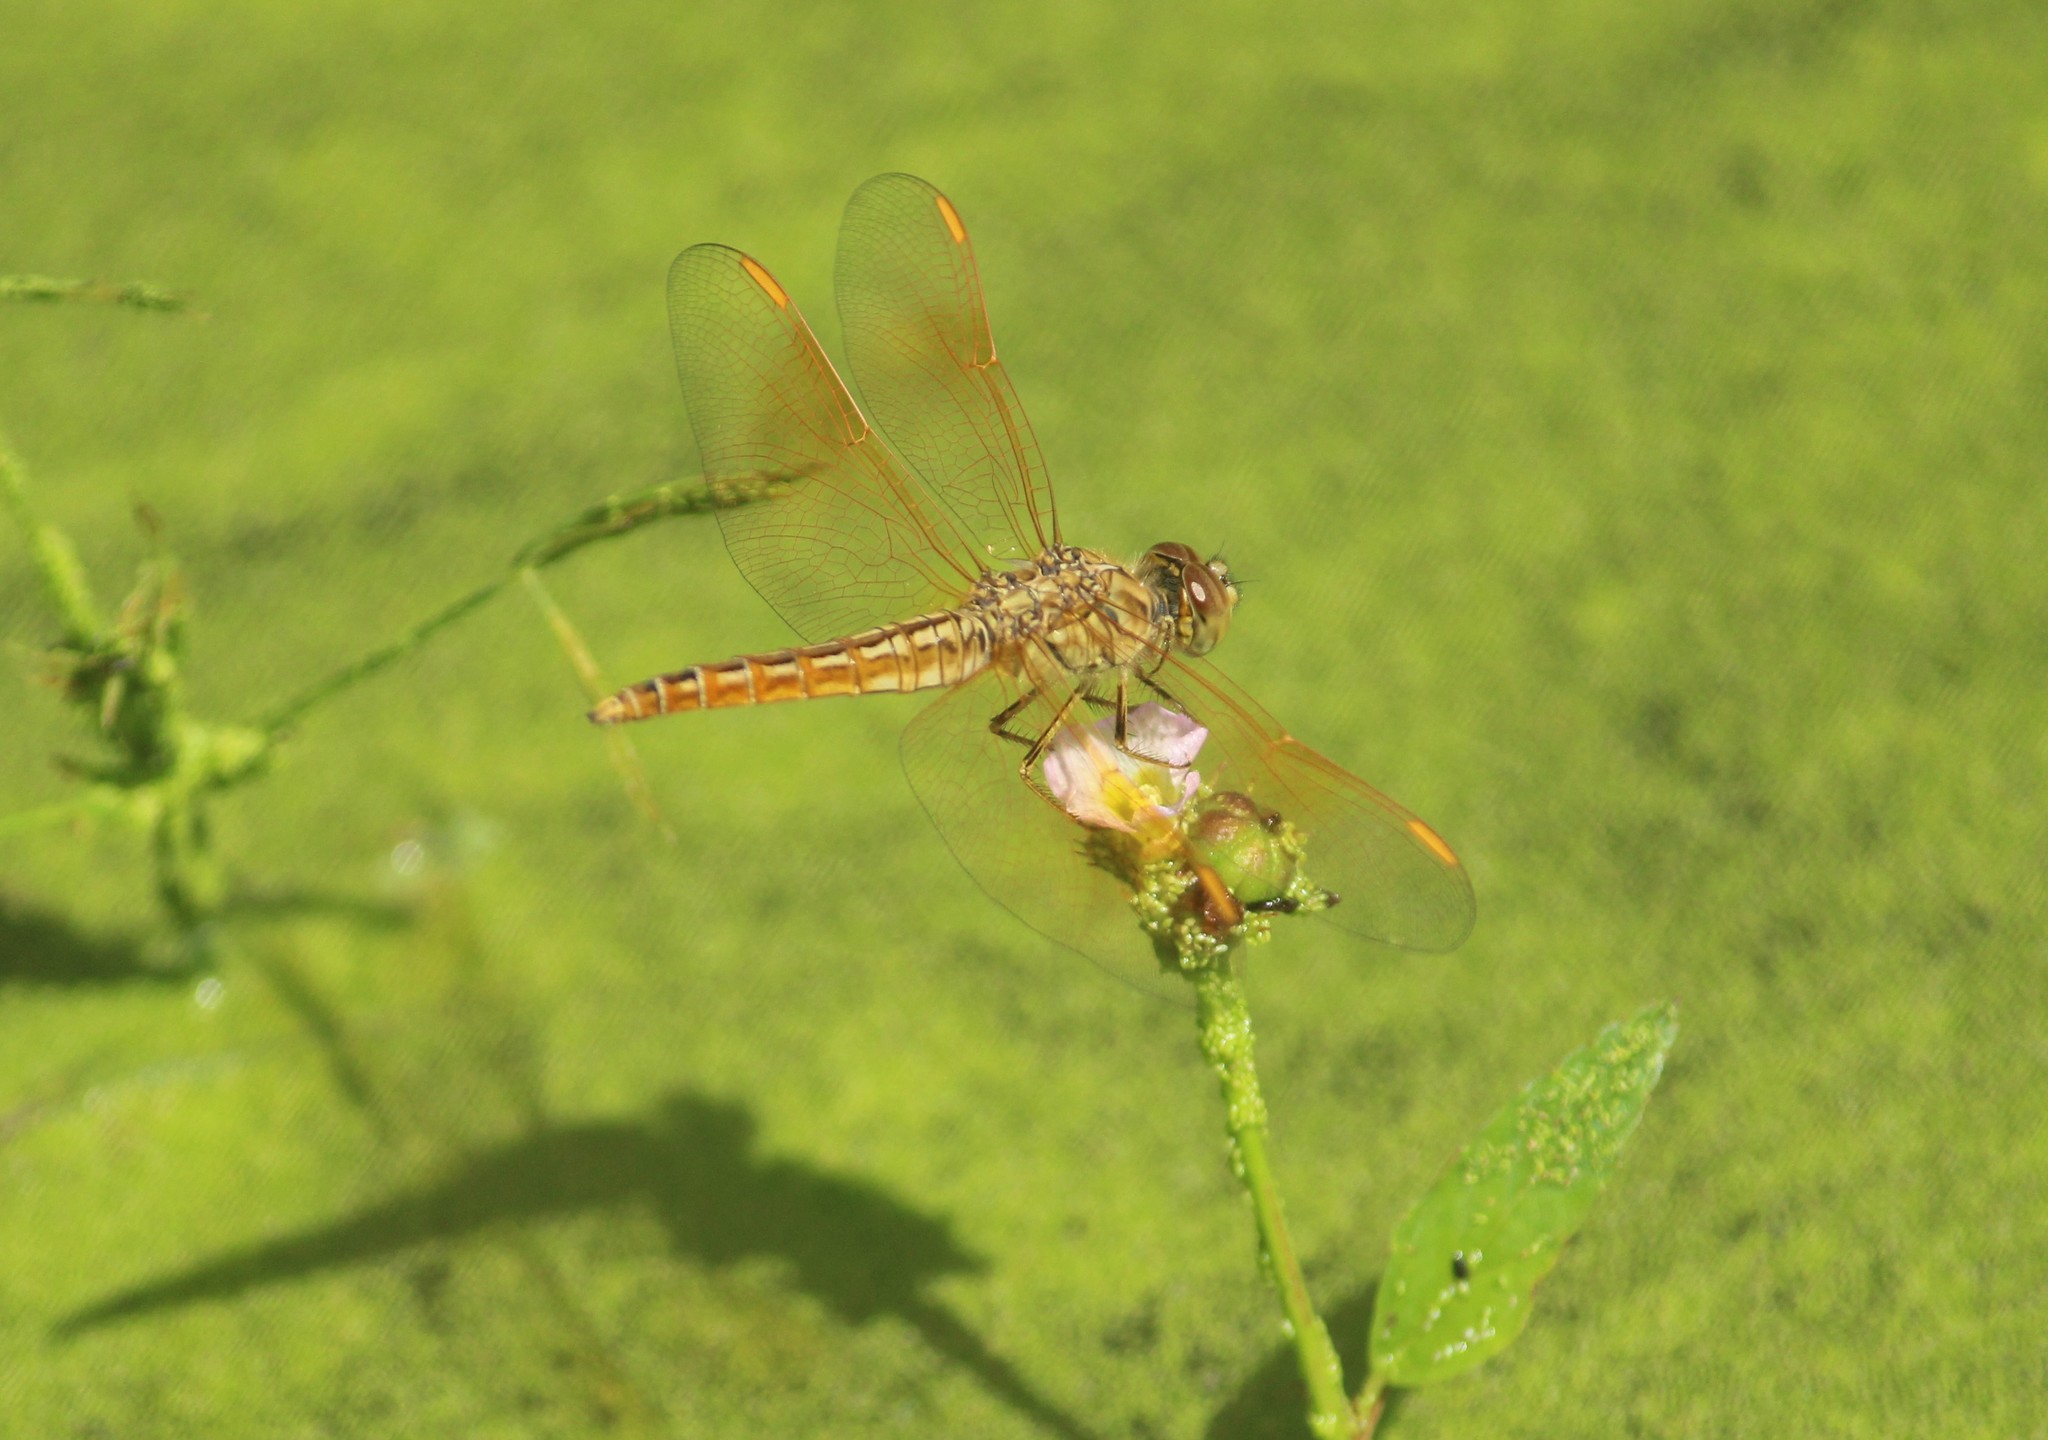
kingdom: Animalia
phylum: Arthropoda
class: Insecta
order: Odonata
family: Libellulidae
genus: Brachythemis
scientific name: Brachythemis contaminata
